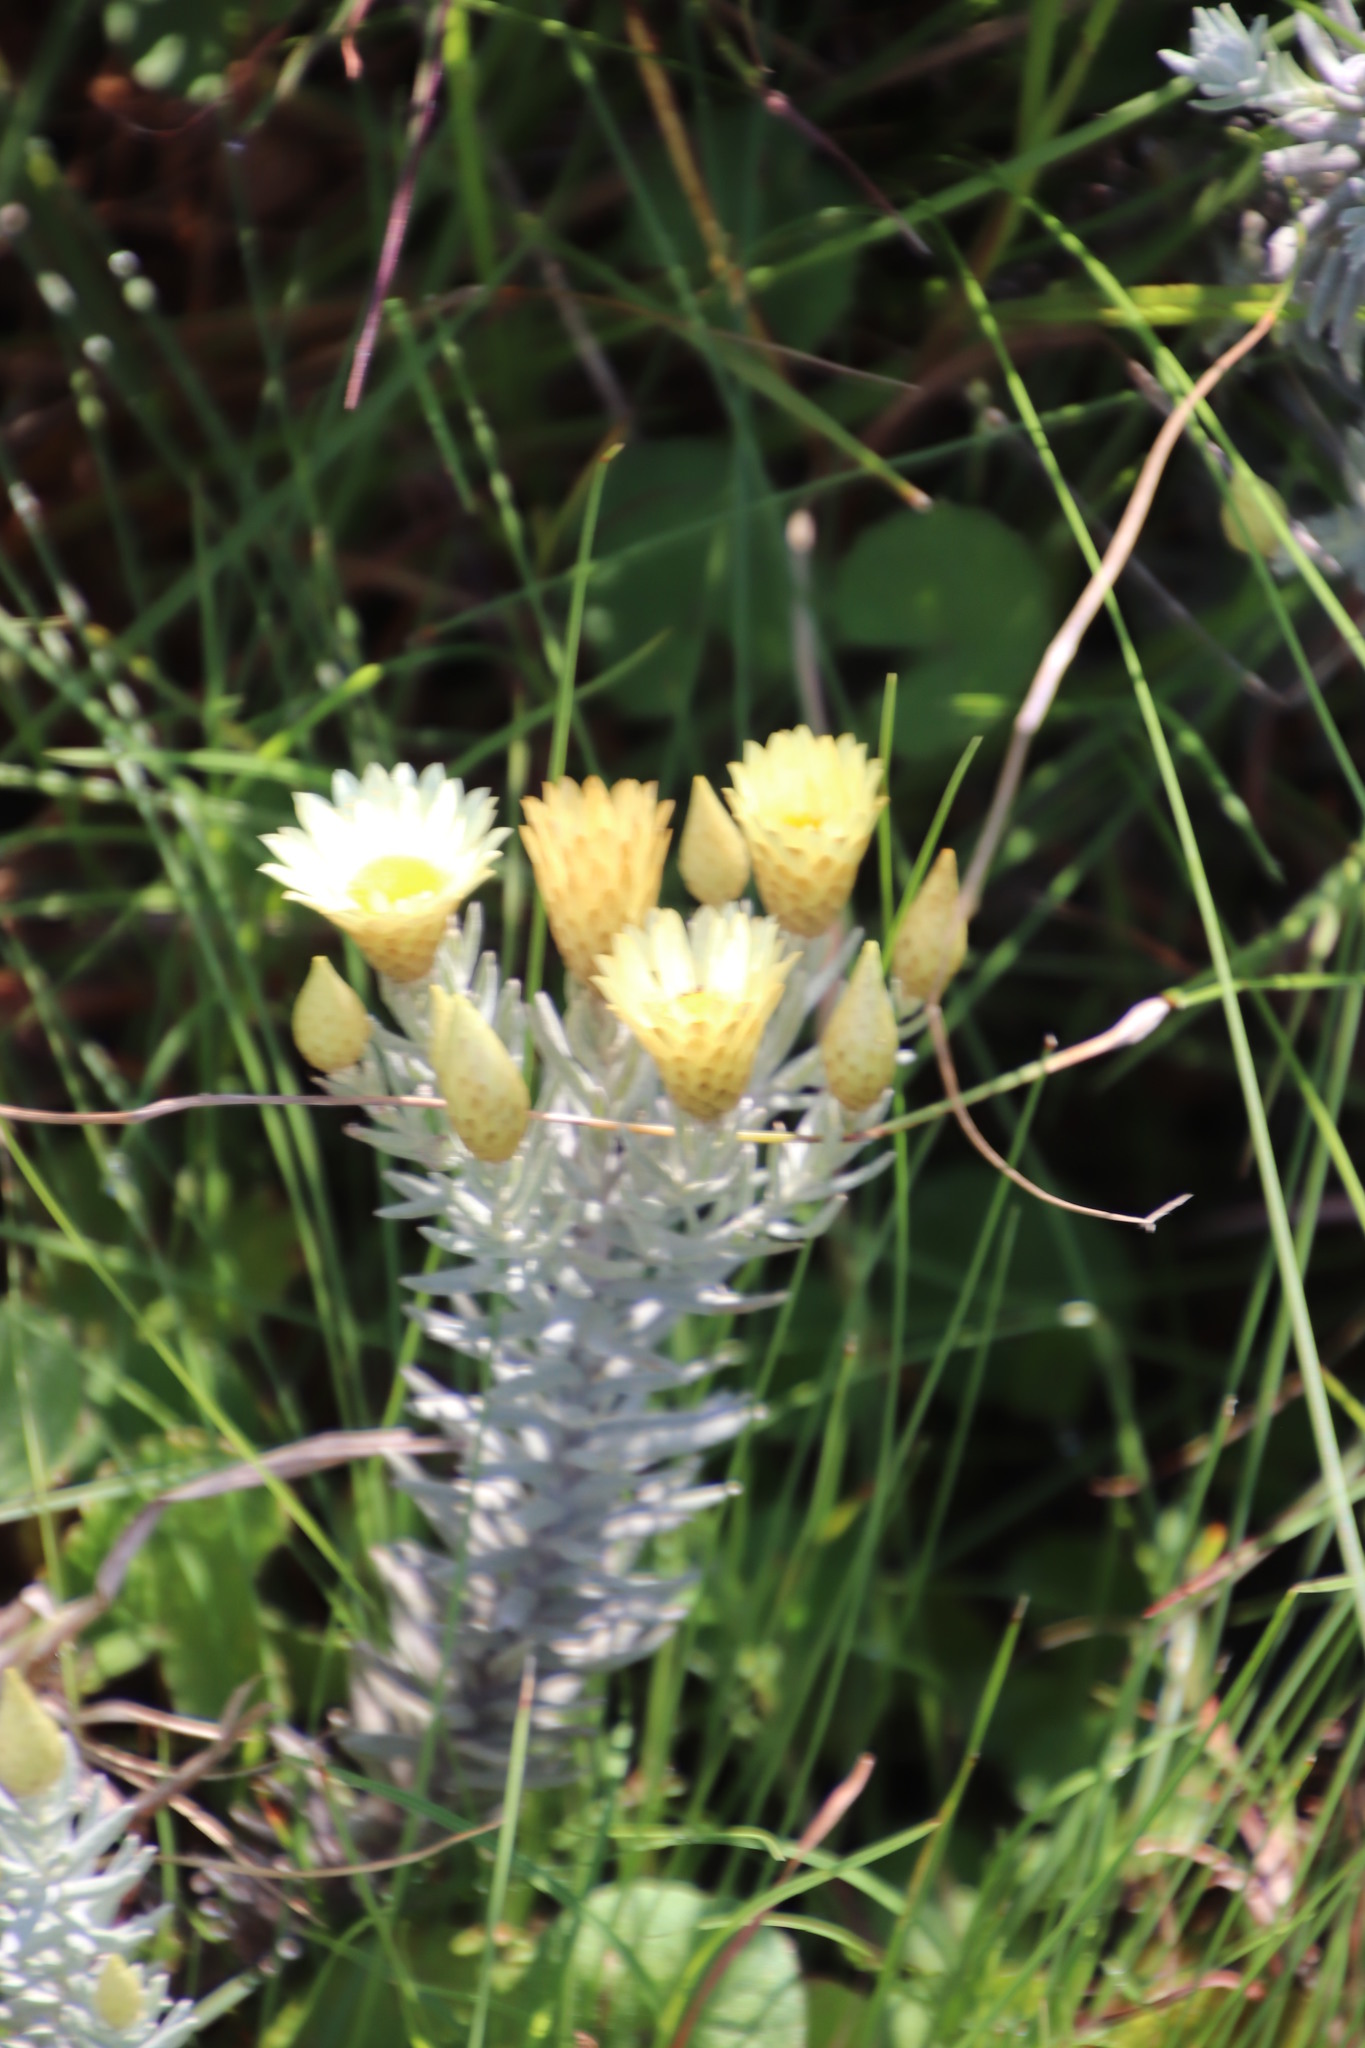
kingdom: Plantae
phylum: Tracheophyta
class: Magnoliopsida
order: Asterales
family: Asteraceae
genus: Helichrysum
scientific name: Helichrysum herbaceum
